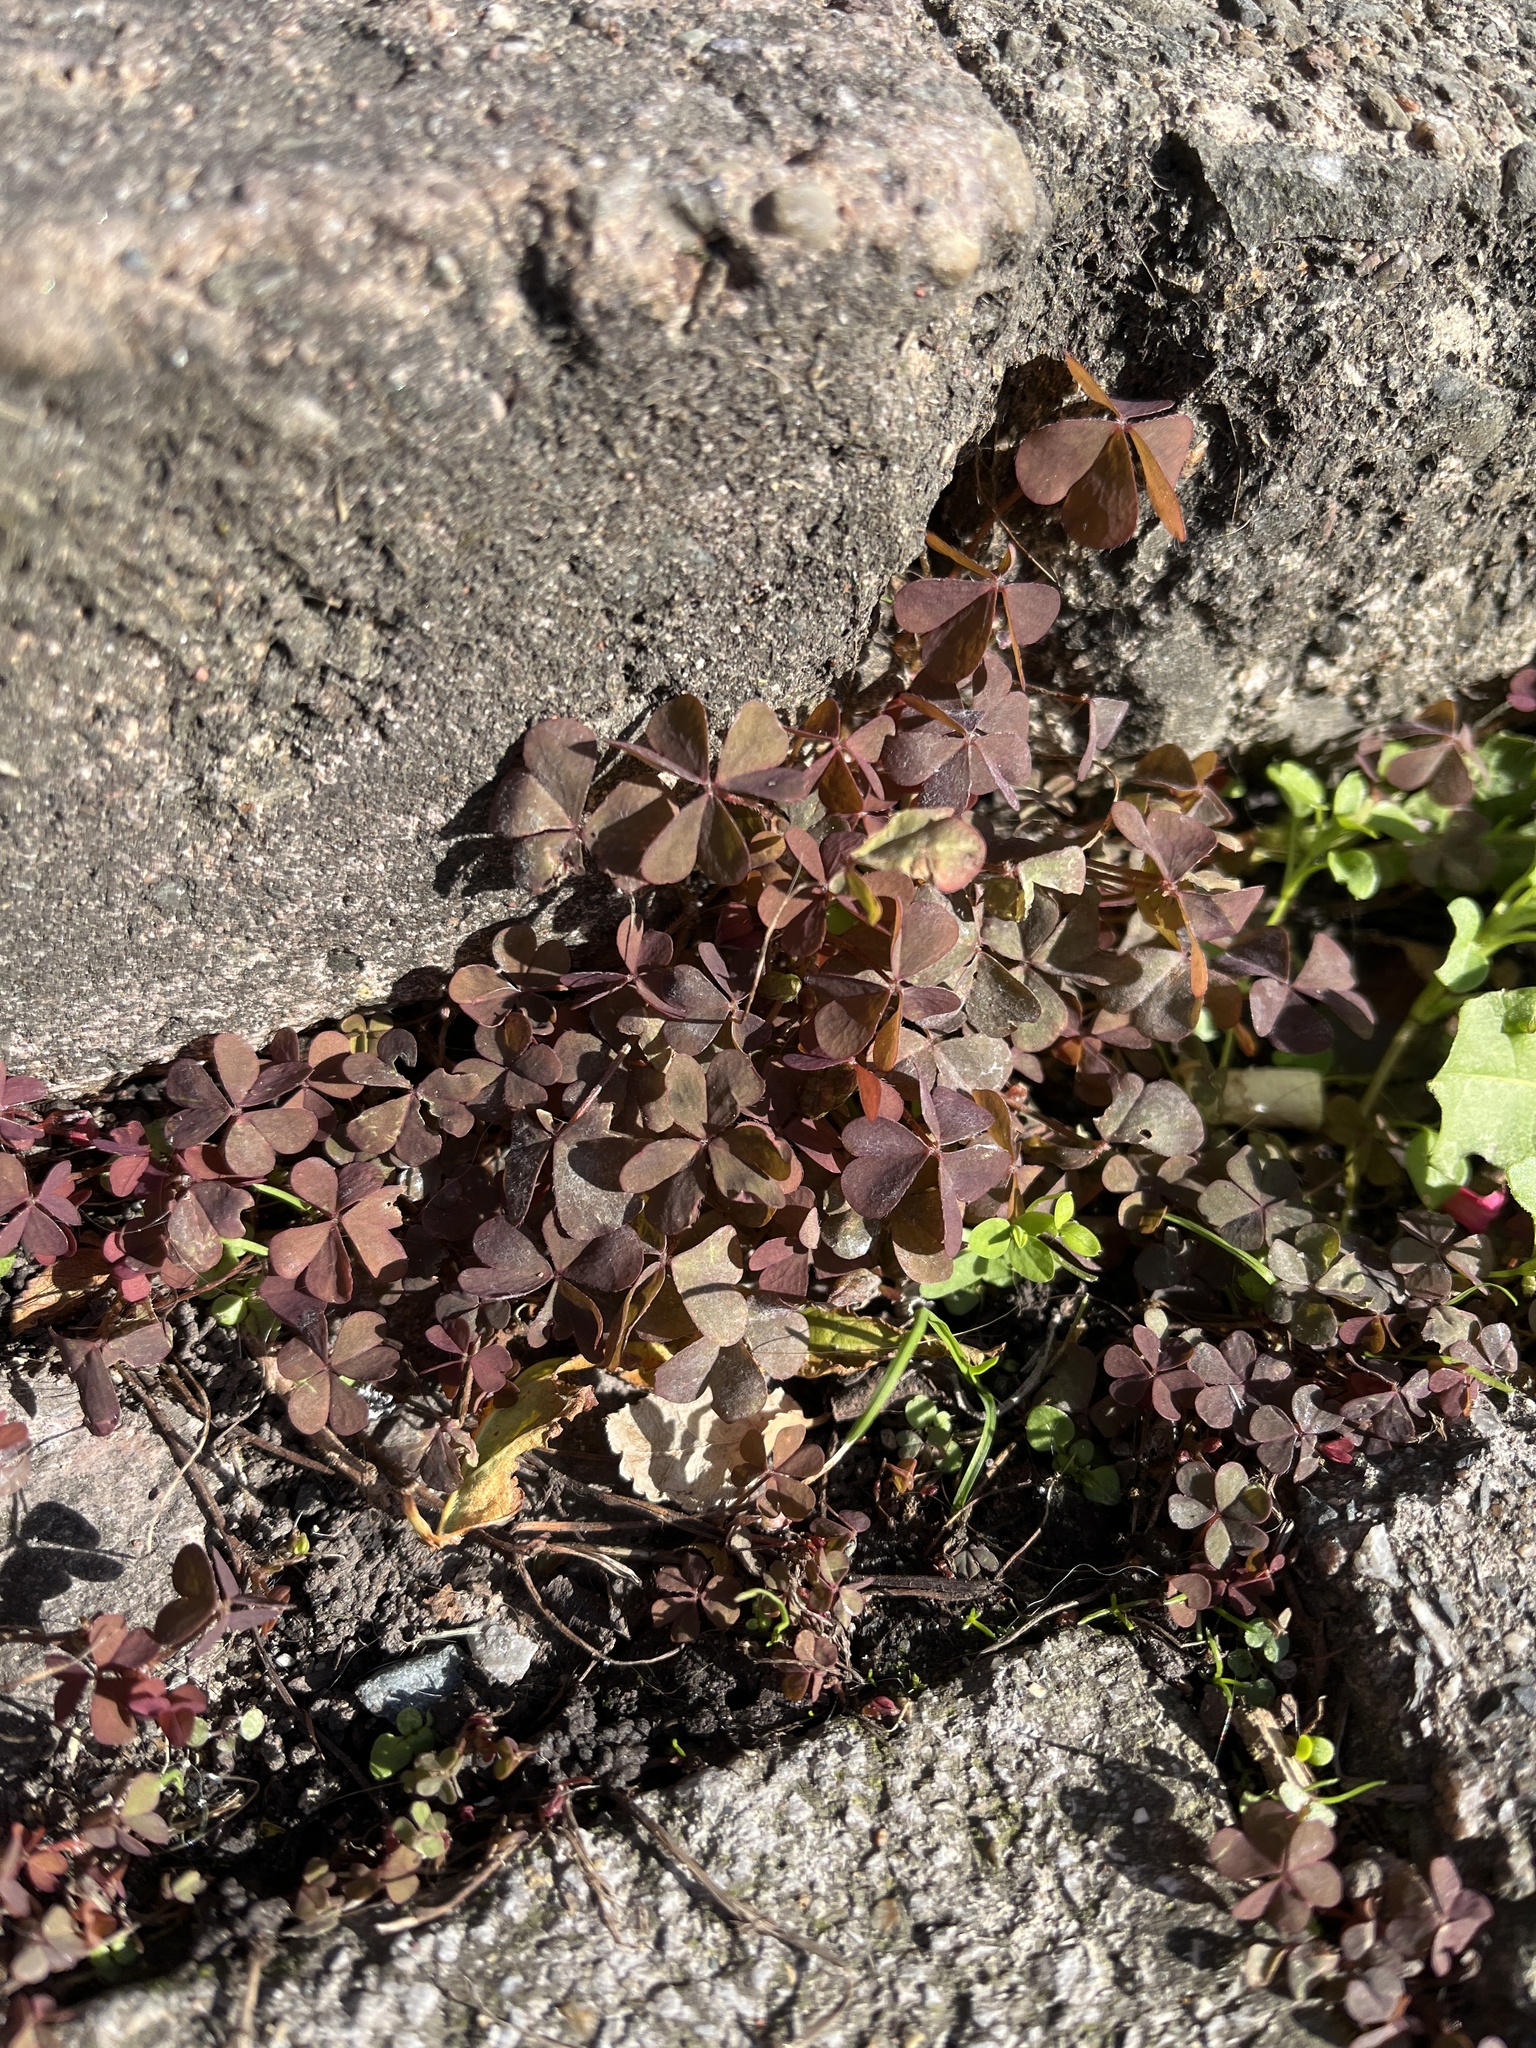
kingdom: Plantae
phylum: Tracheophyta
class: Magnoliopsida
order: Oxalidales
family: Oxalidaceae
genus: Oxalis
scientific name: Oxalis corniculata
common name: Procumbent yellow-sorrel
